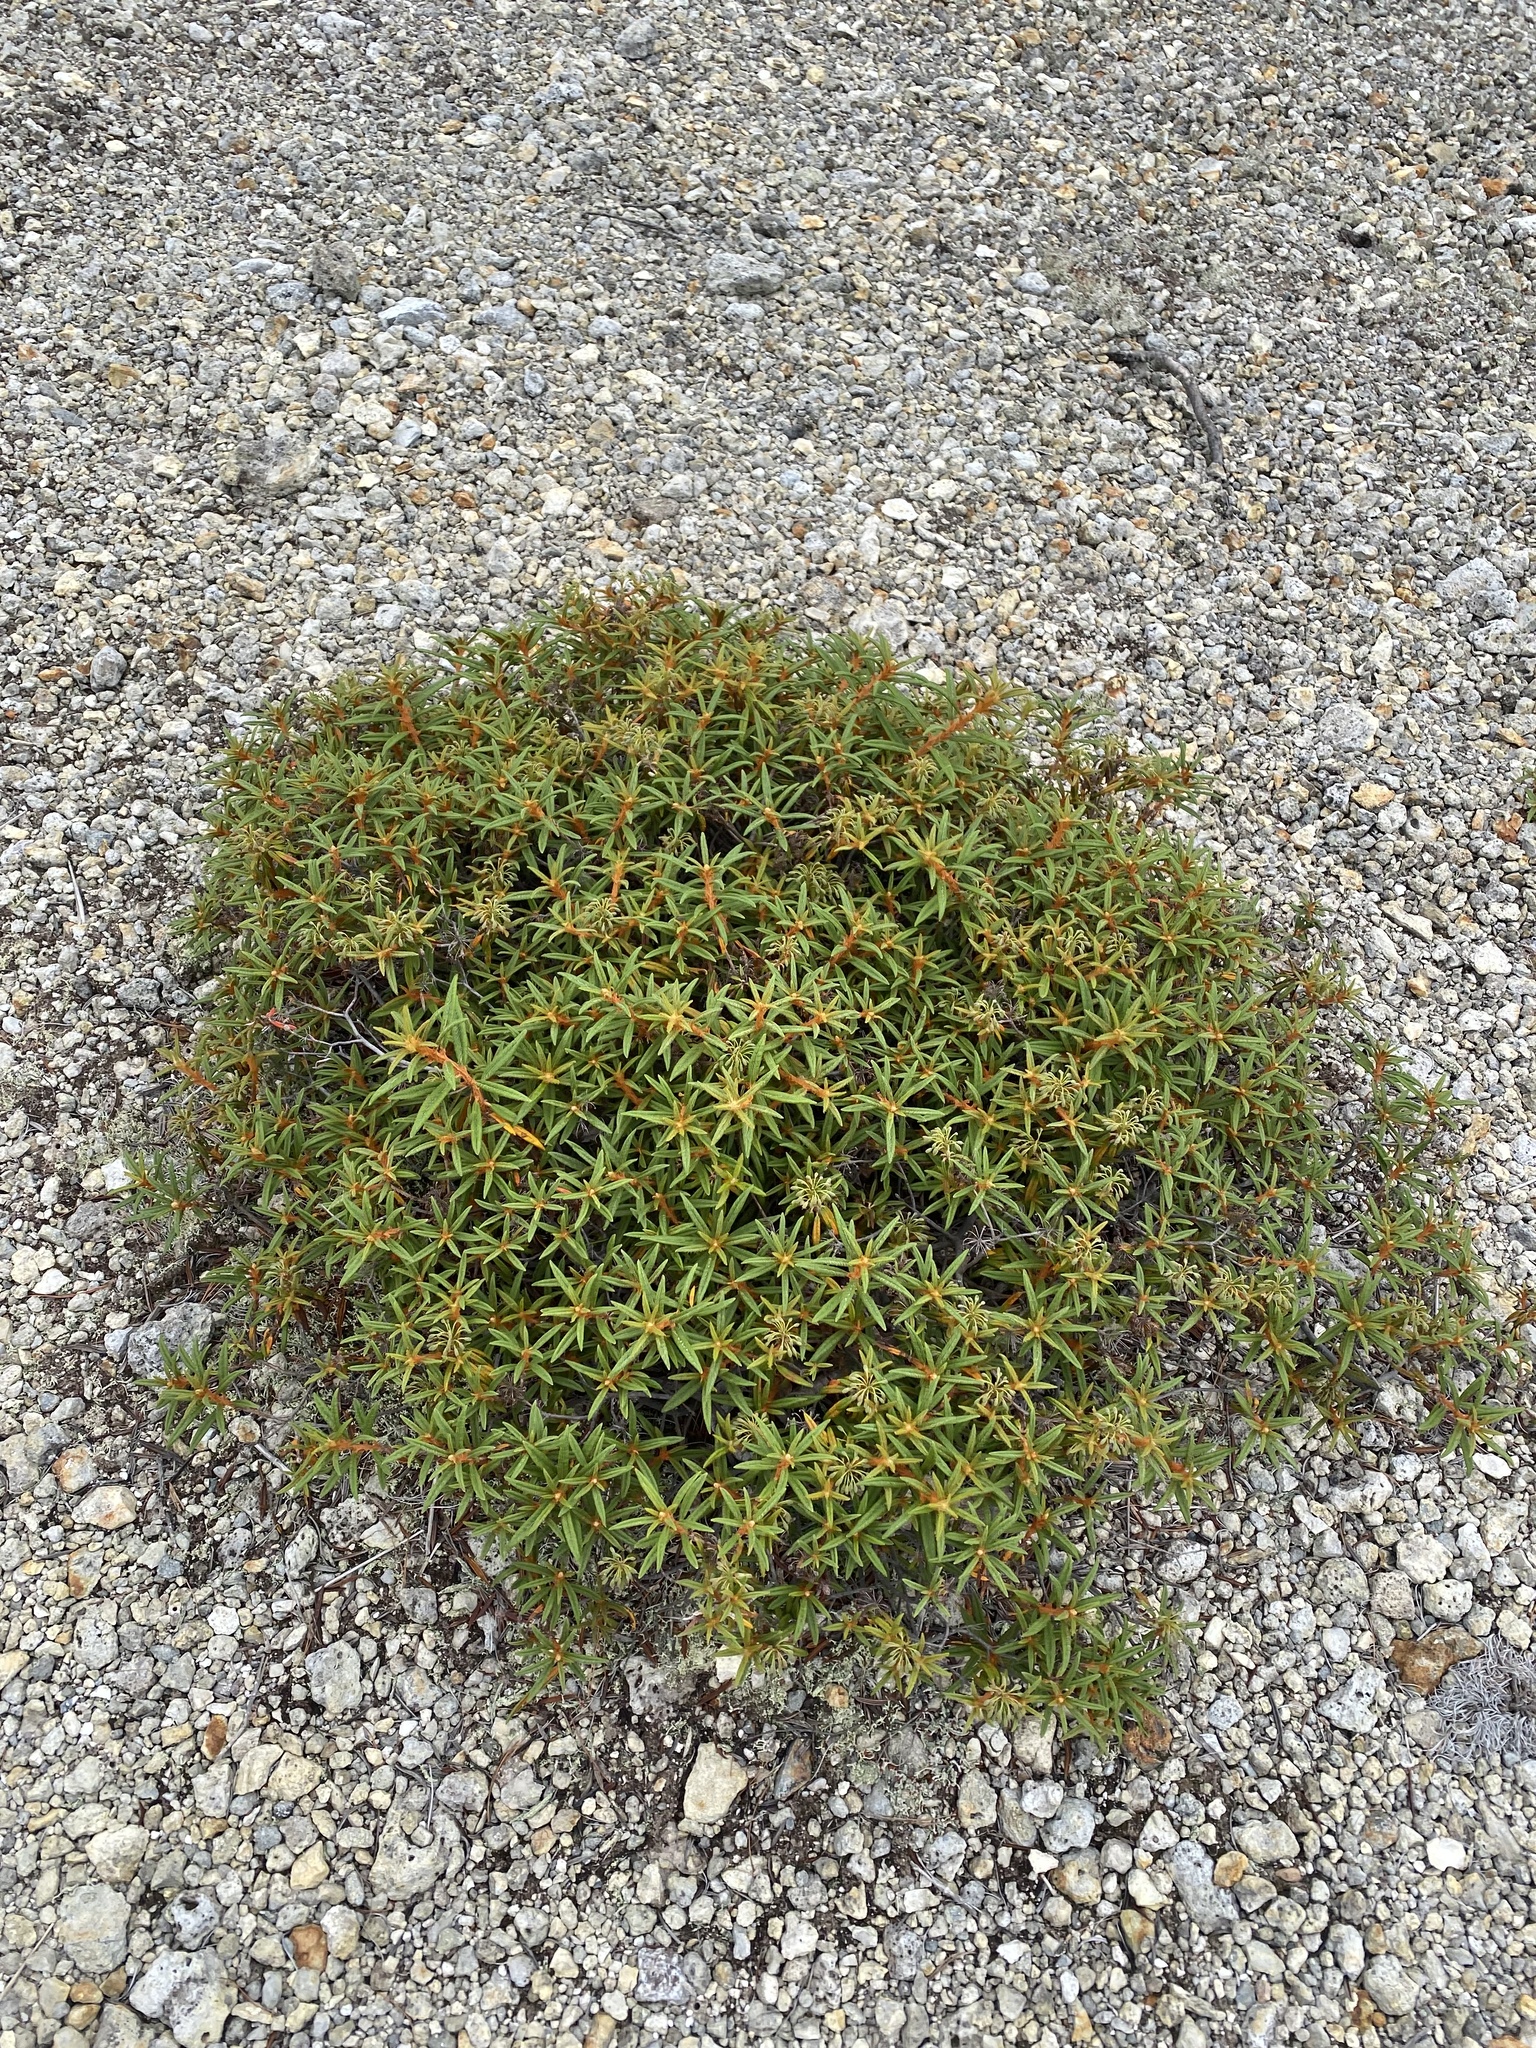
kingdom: Plantae
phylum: Tracheophyta
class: Magnoliopsida
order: Ericales
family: Ericaceae
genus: Rhododendron
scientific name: Rhododendron tomentosum
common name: Marsh labrador tea
